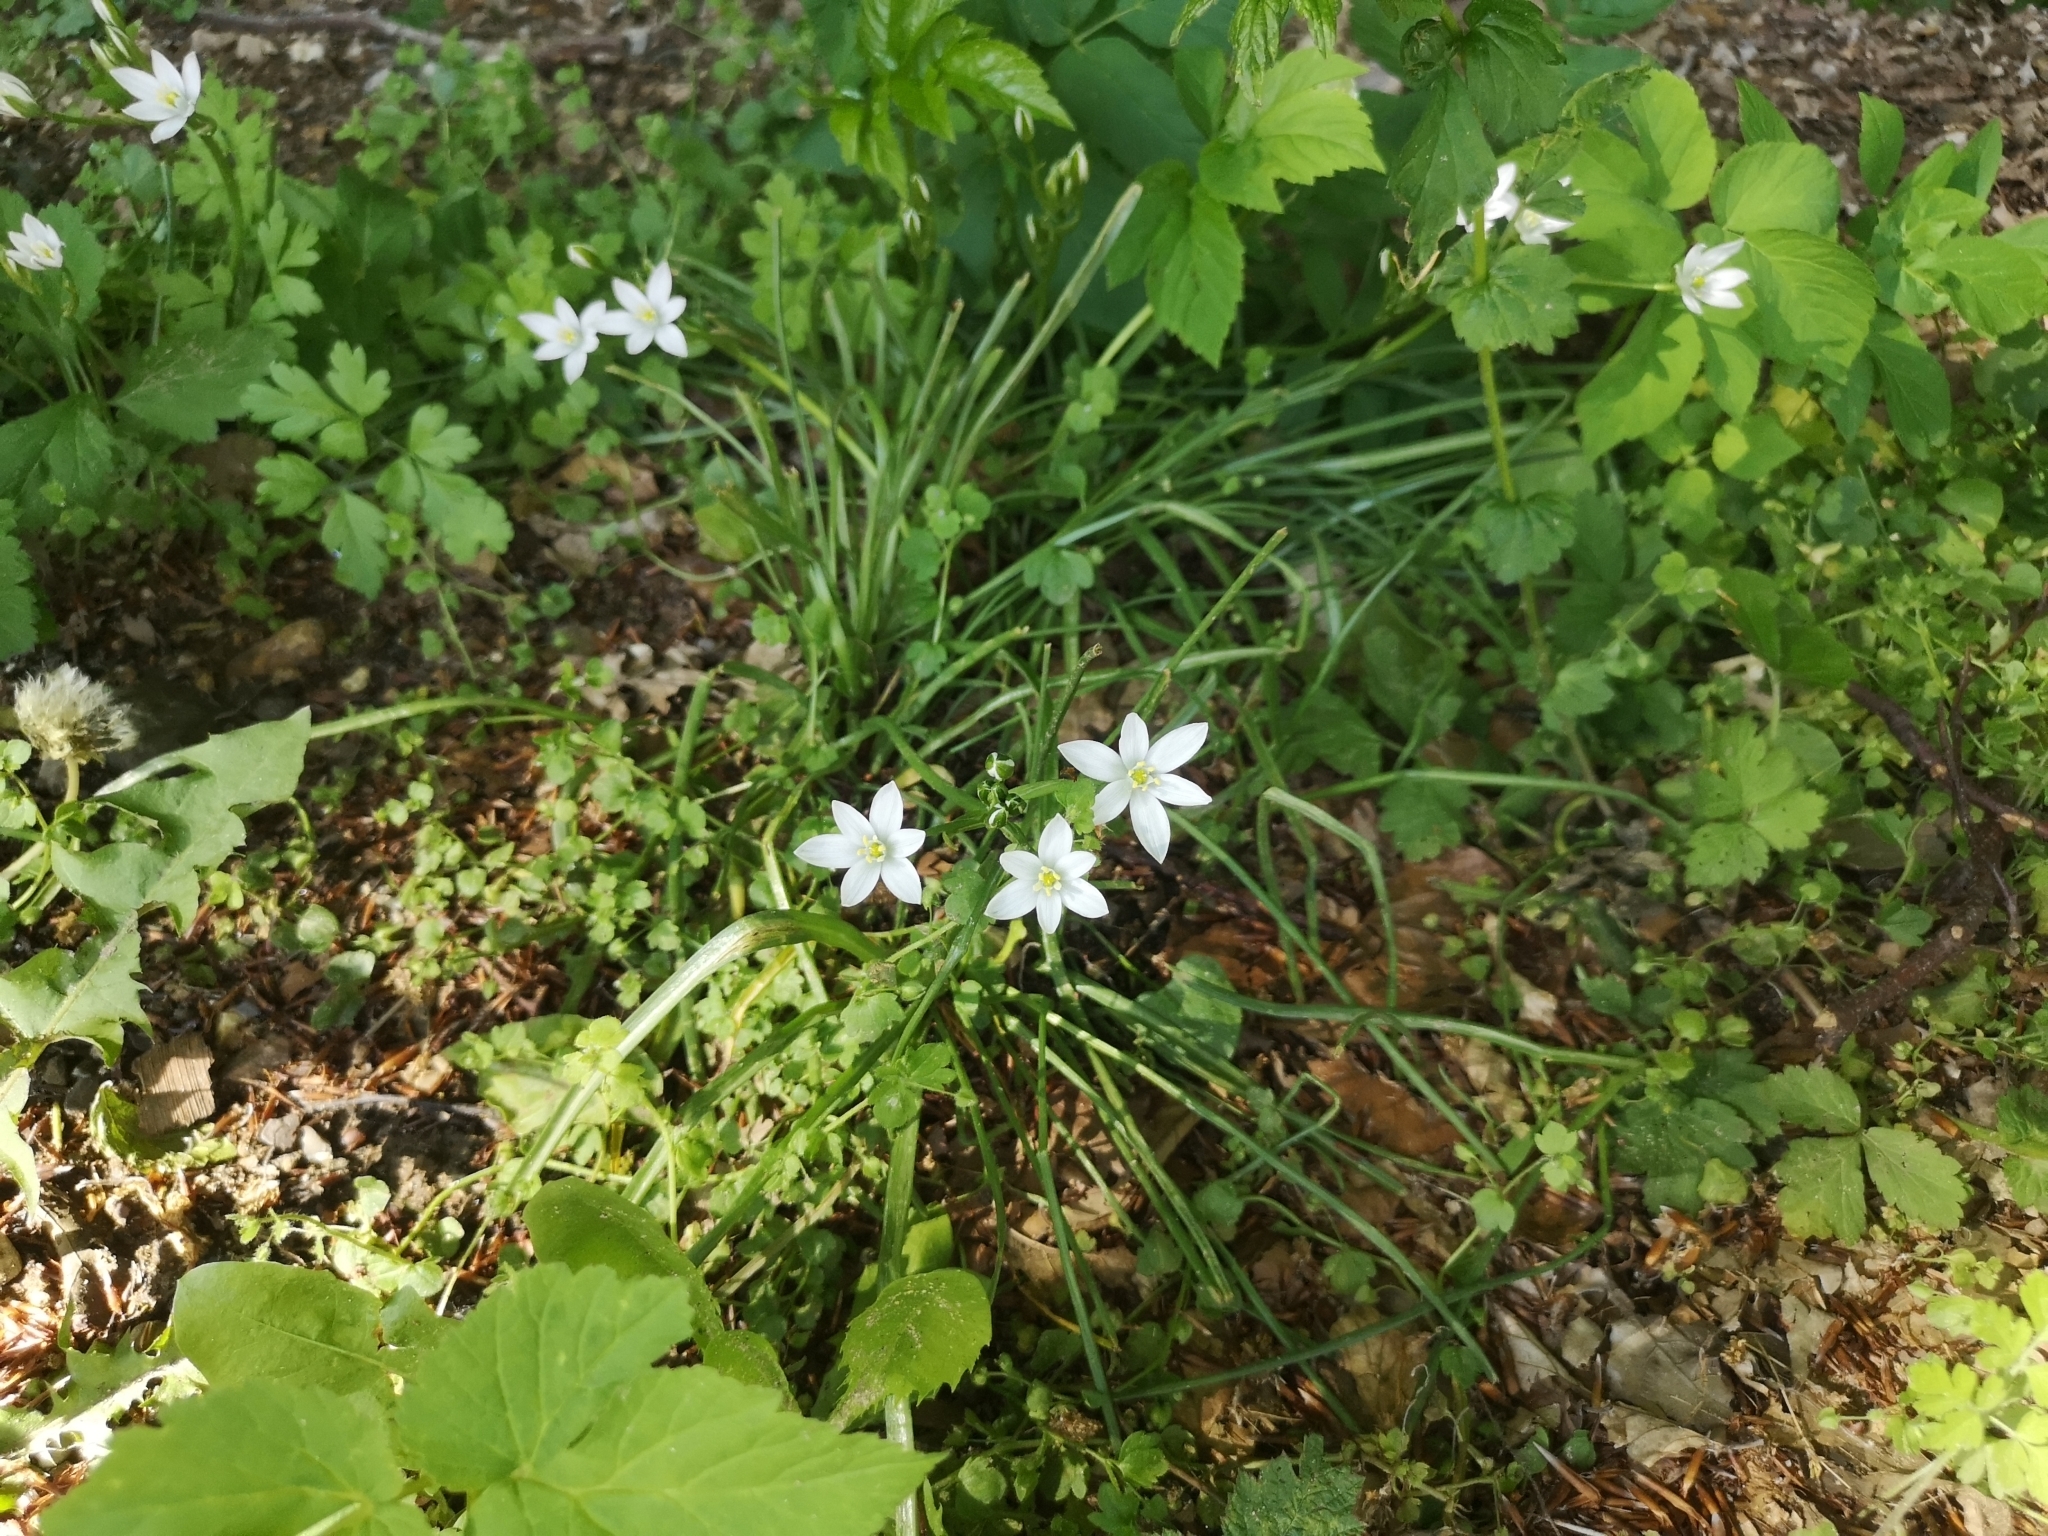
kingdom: Plantae
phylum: Tracheophyta
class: Liliopsida
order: Asparagales
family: Asparagaceae
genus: Ornithogalum
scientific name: Ornithogalum umbellatum
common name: Garden star-of-bethlehem
